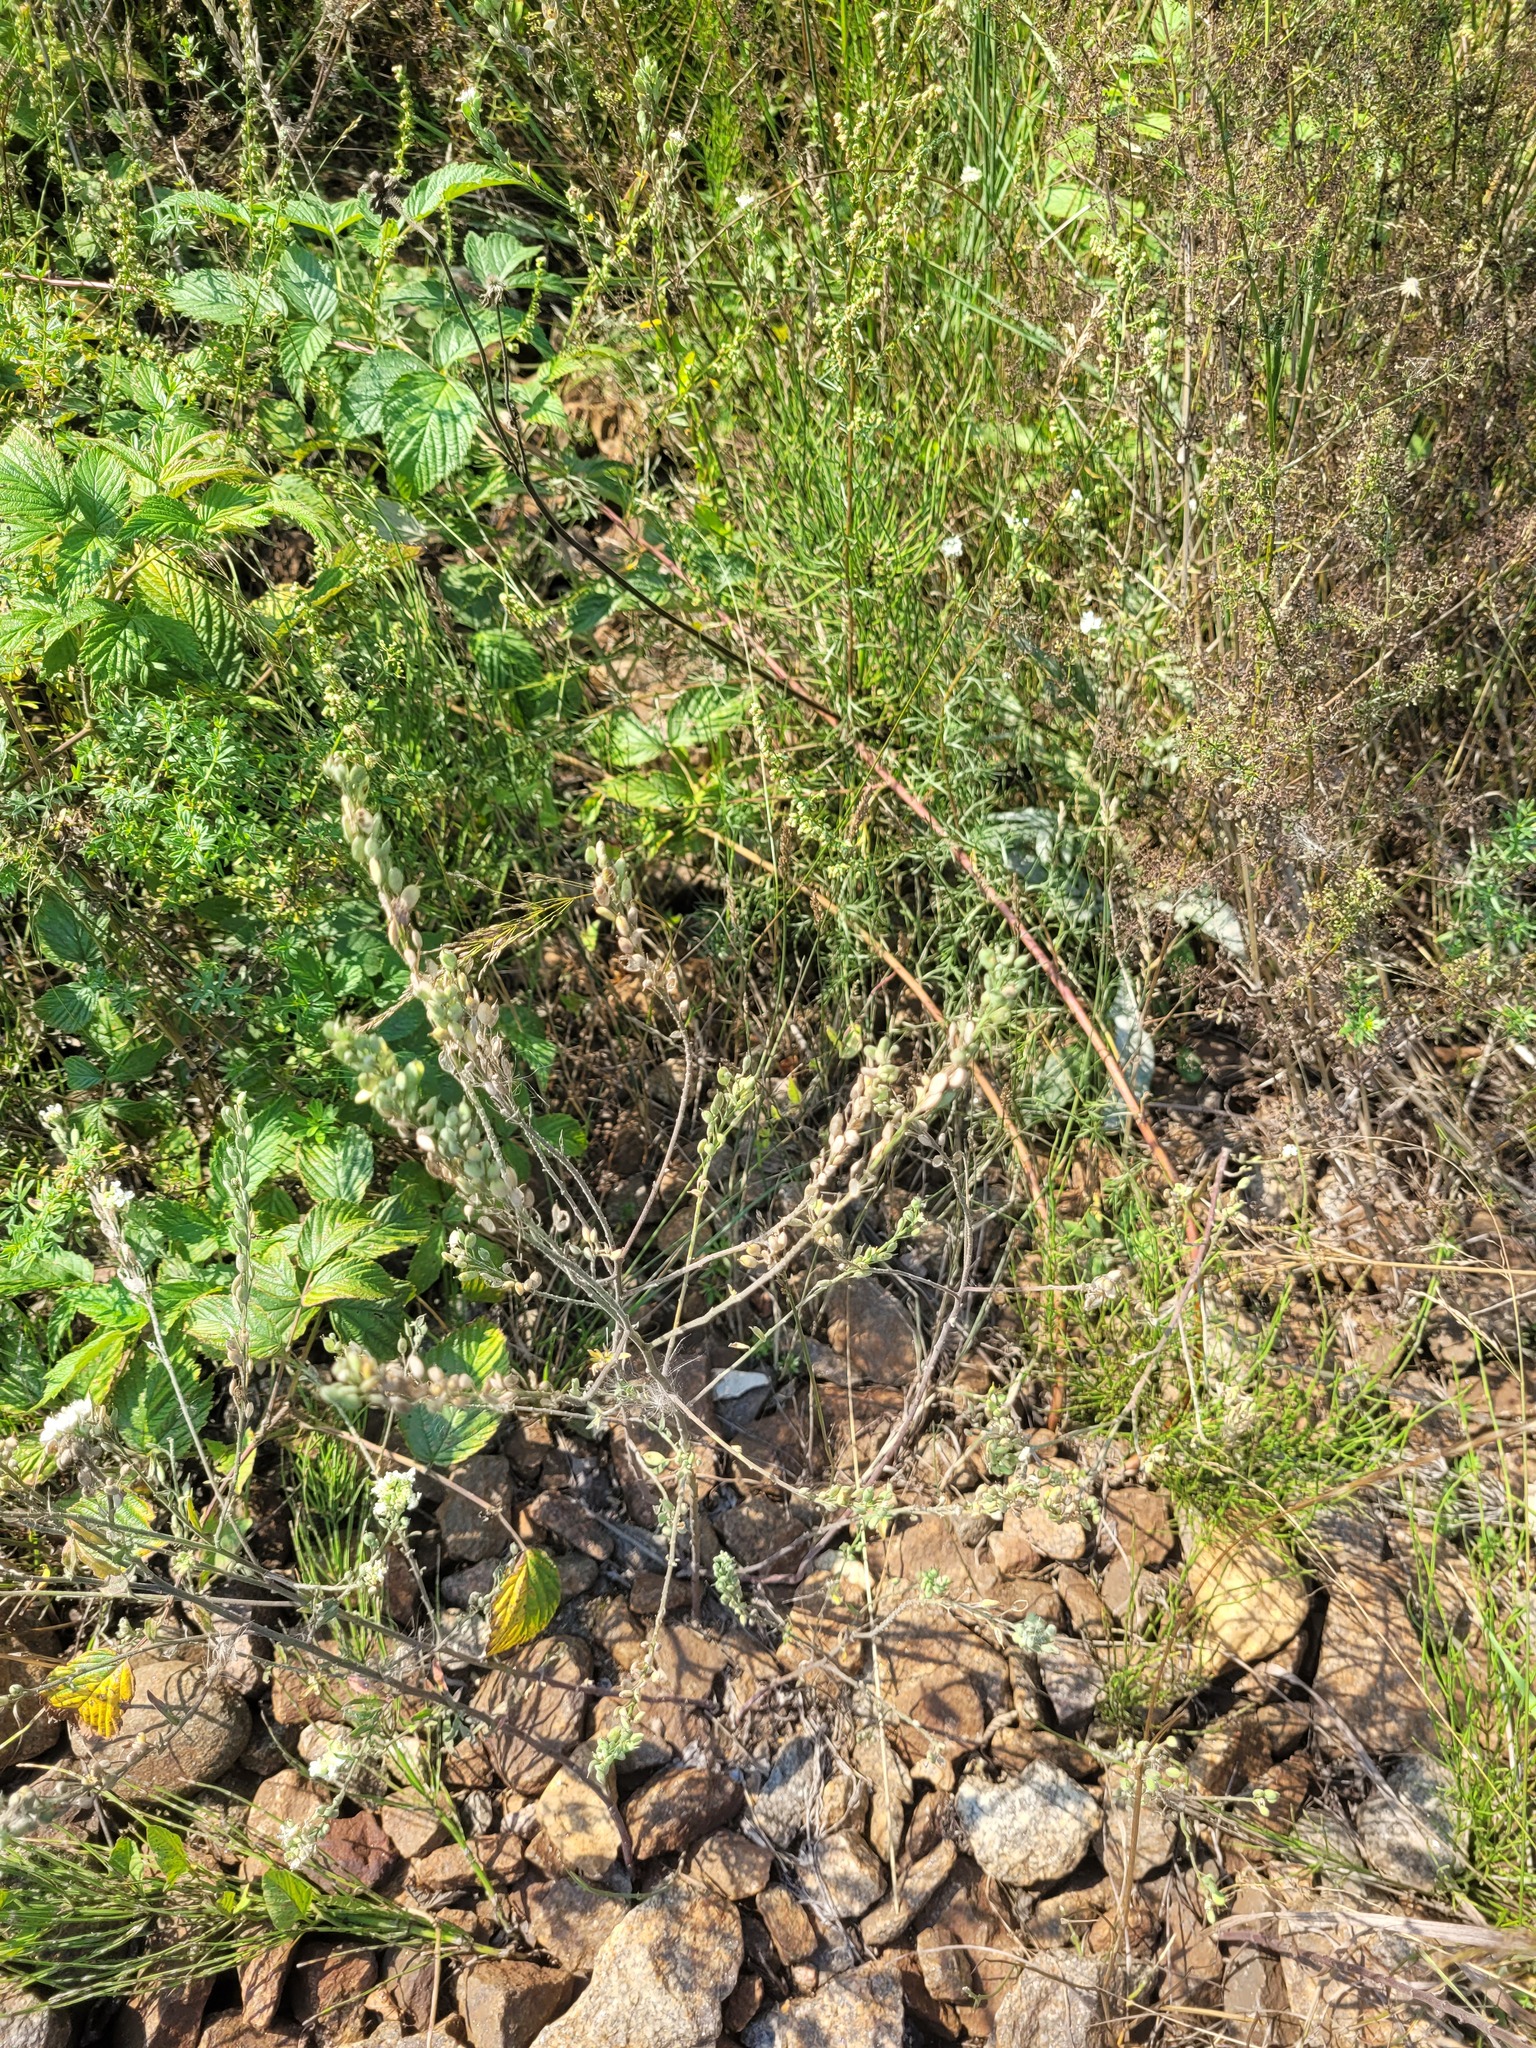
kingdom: Plantae
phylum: Tracheophyta
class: Magnoliopsida
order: Brassicales
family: Brassicaceae
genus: Berteroa
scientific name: Berteroa incana
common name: Hoary alison
